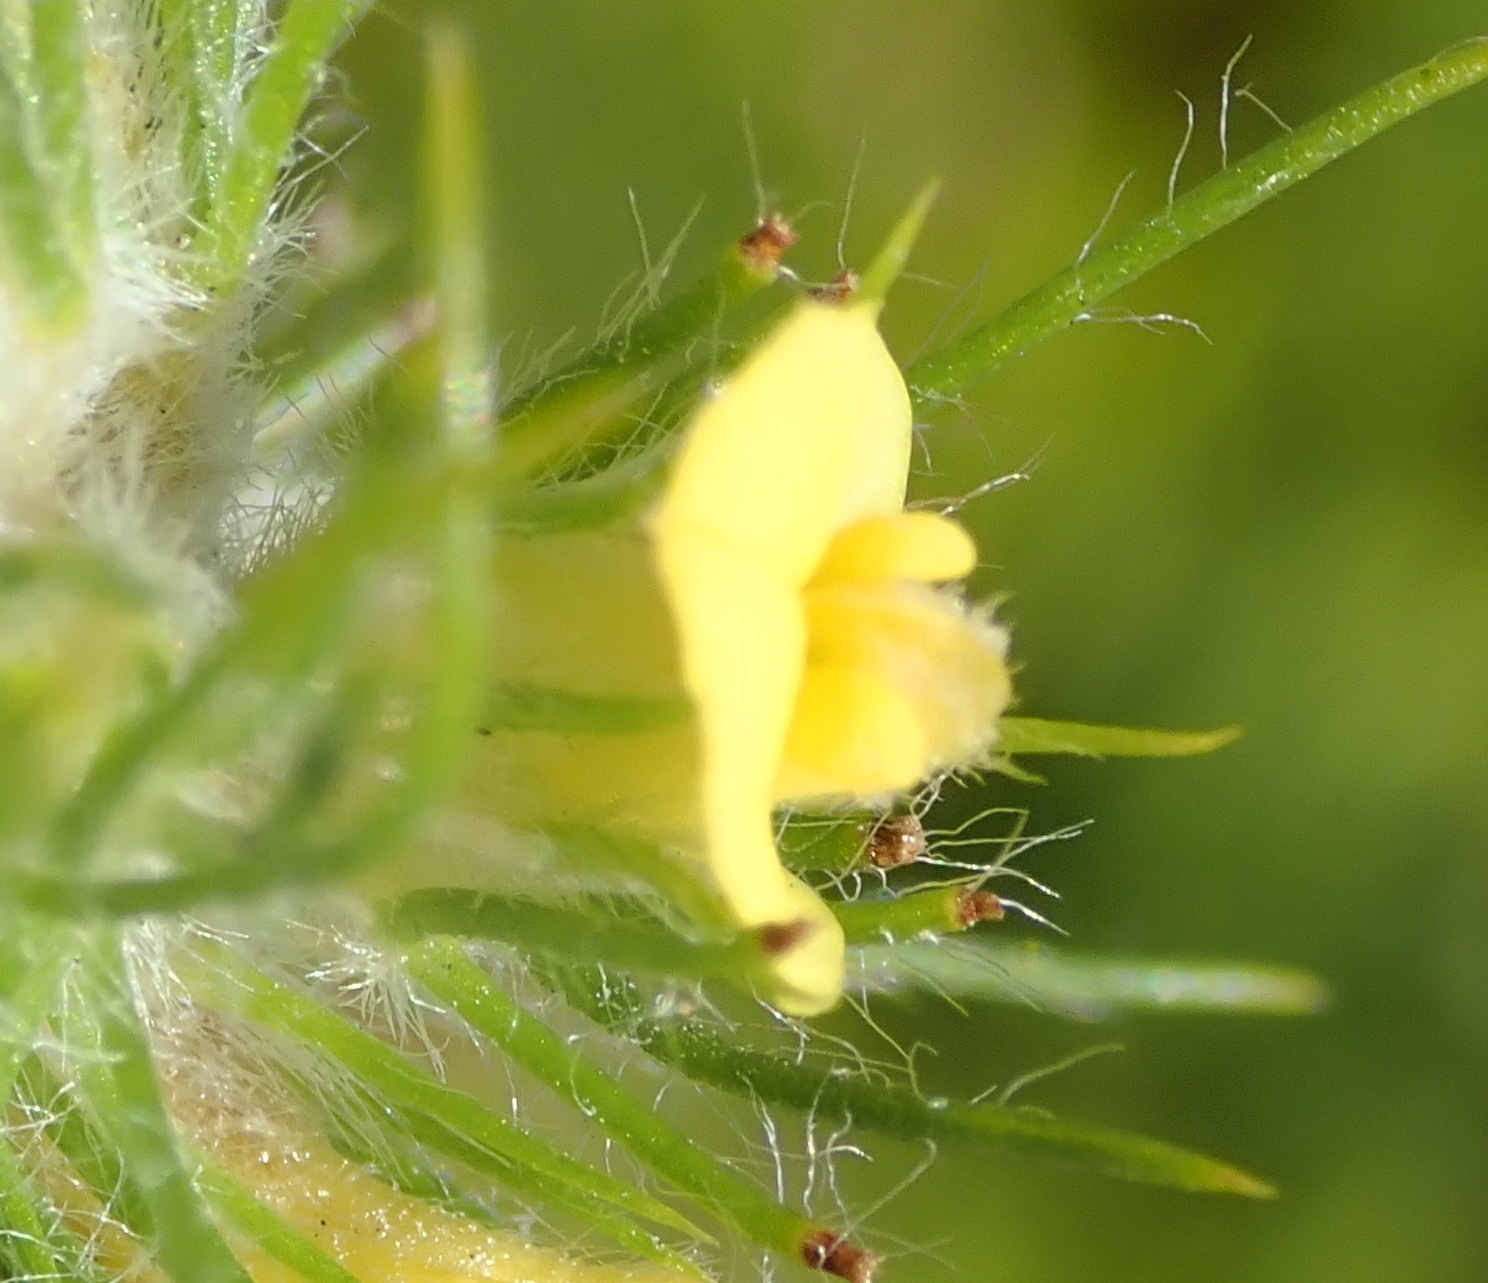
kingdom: Plantae
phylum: Tracheophyta
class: Magnoliopsida
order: Fabales
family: Fabaceae
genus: Aspalathus
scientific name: Aspalathus alopecurus
